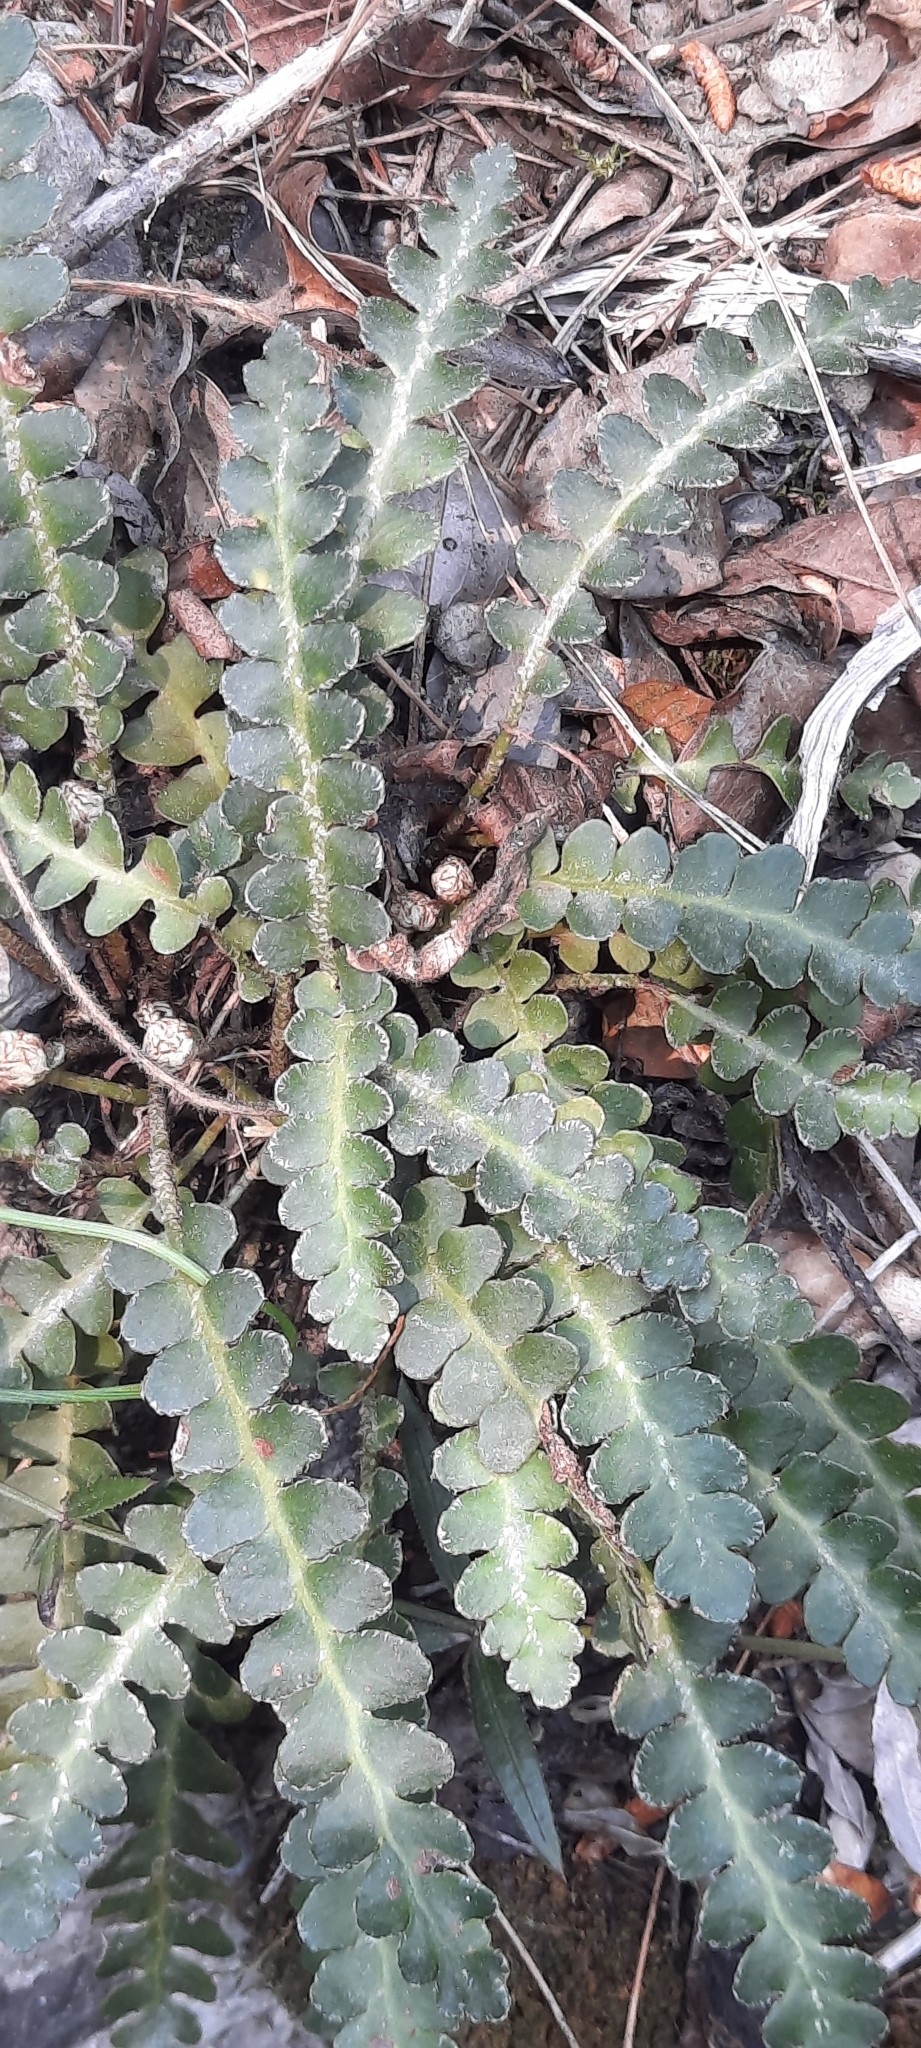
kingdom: Plantae
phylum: Tracheophyta
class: Polypodiopsida
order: Polypodiales
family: Aspleniaceae
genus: Asplenium
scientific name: Asplenium ceterach
